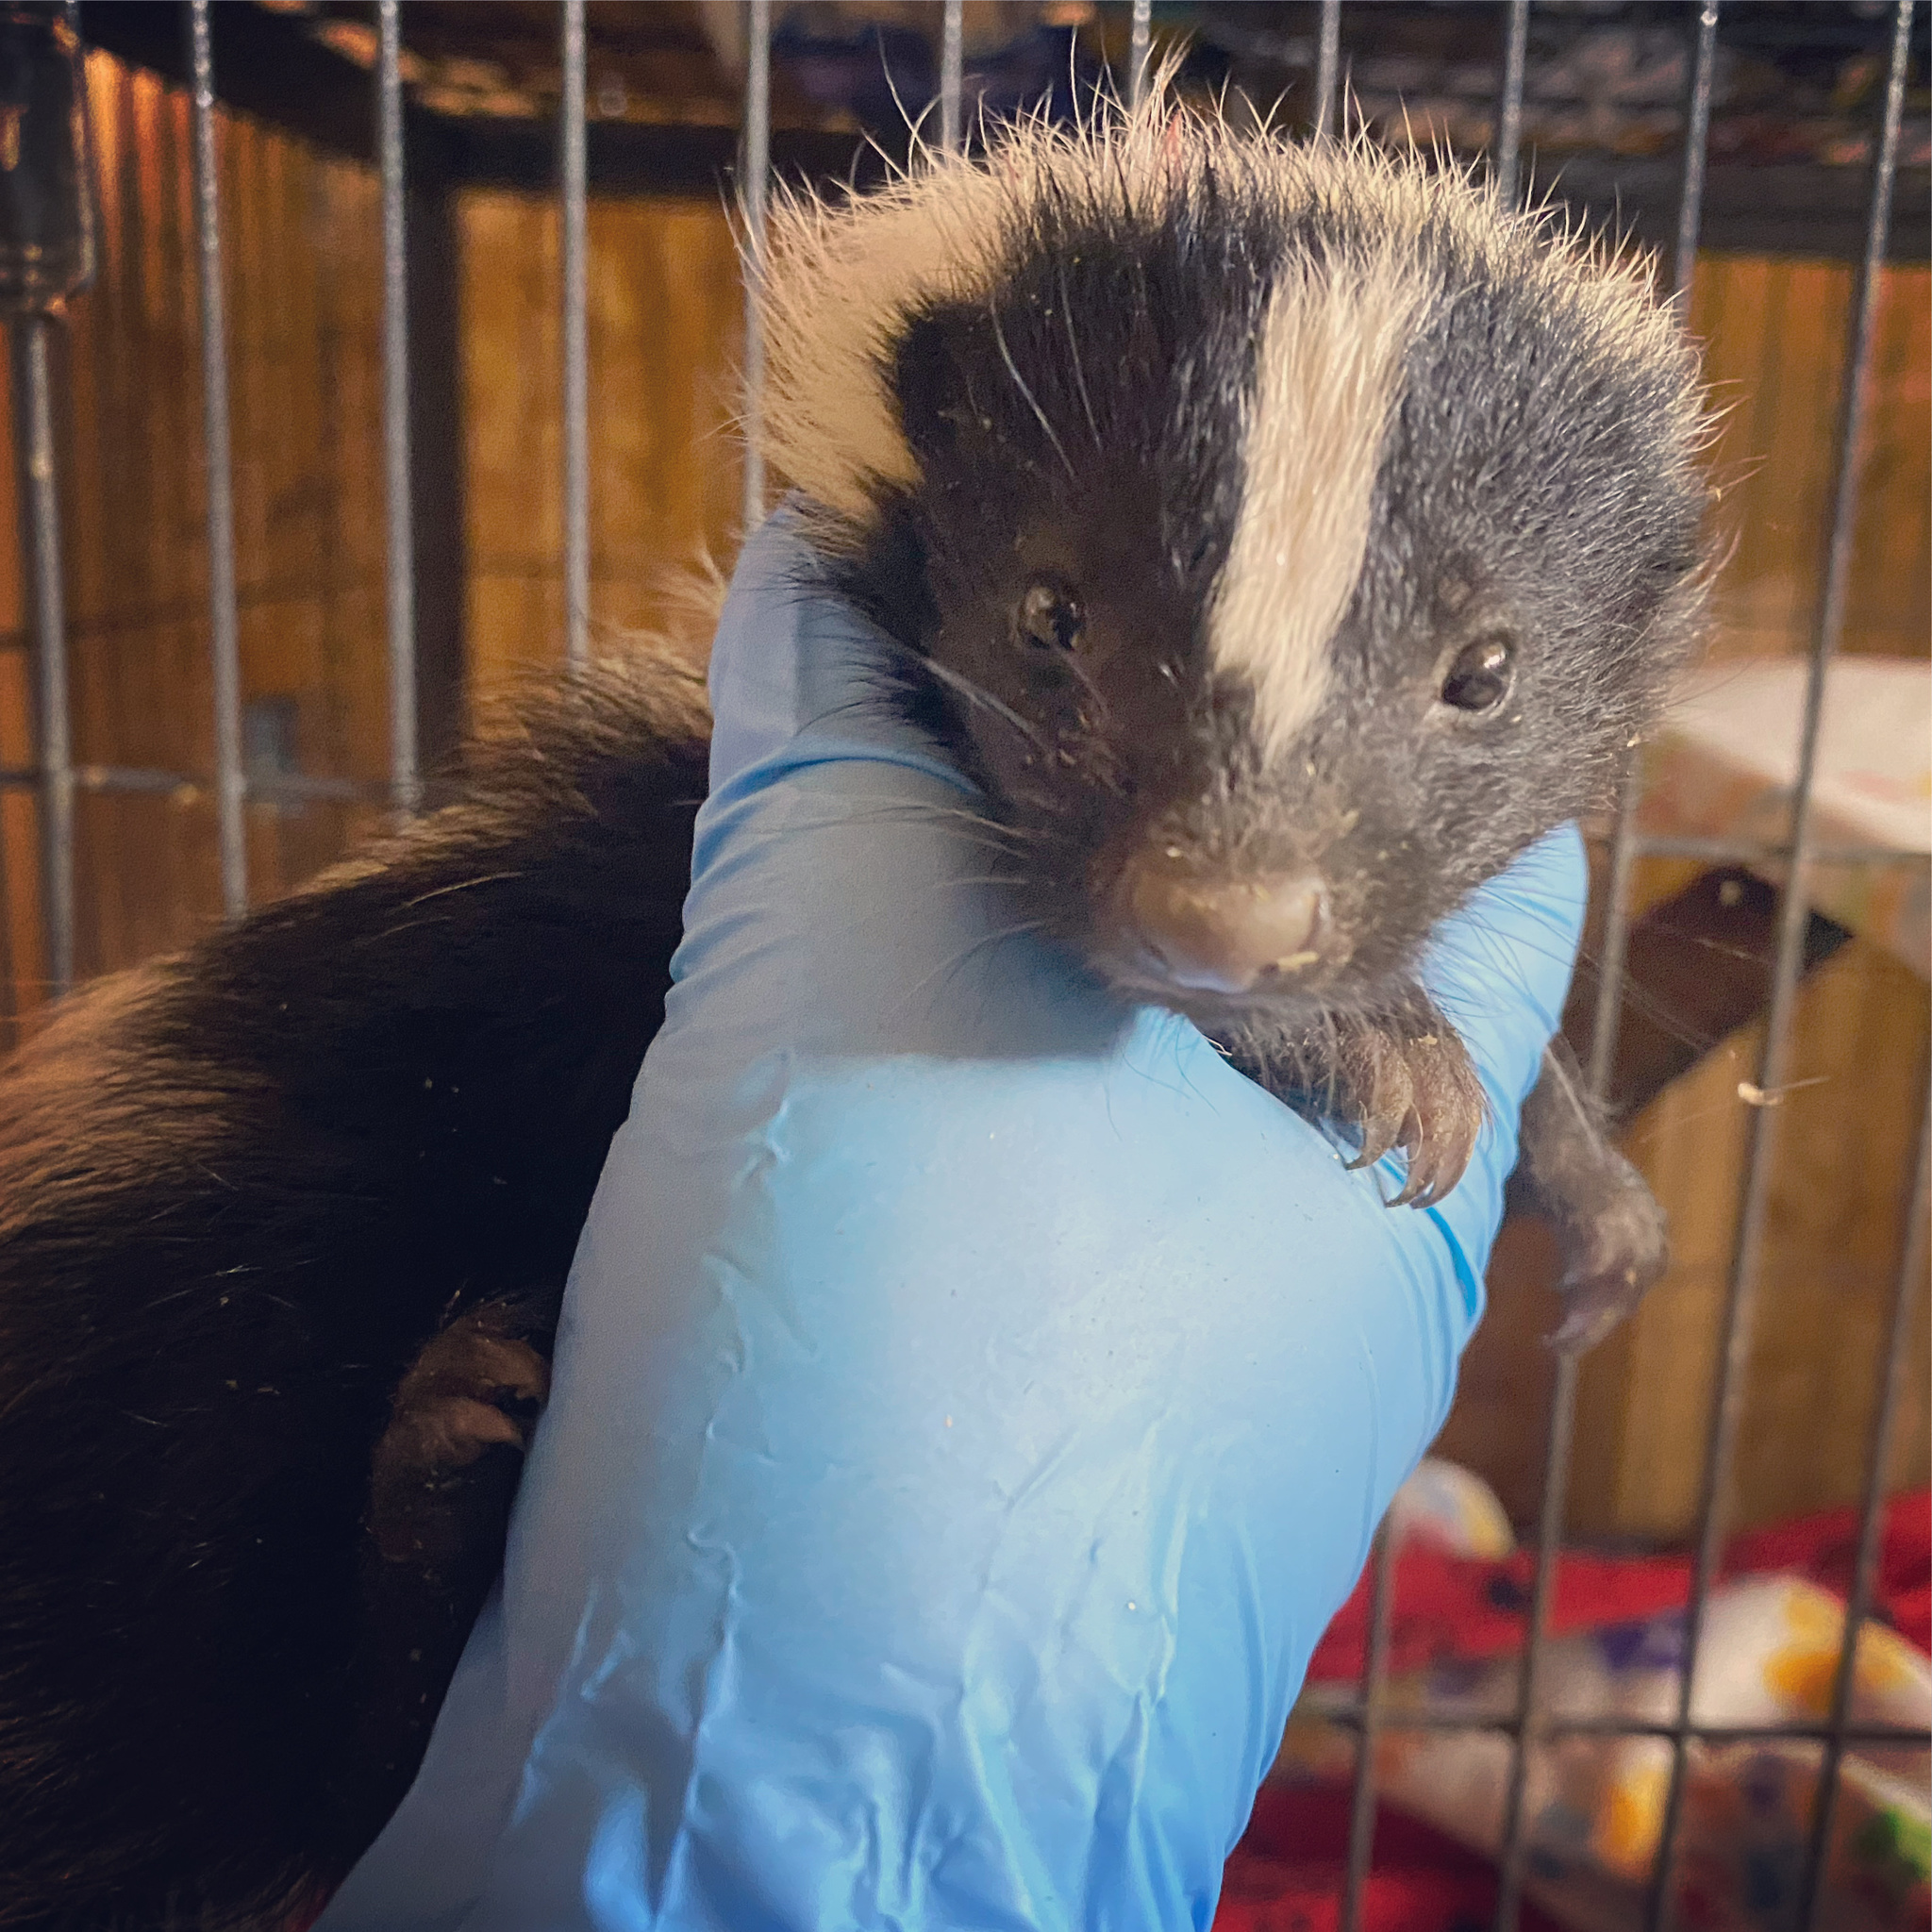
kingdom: Animalia
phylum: Chordata
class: Mammalia
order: Carnivora
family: Mephitidae
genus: Mephitis
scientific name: Mephitis mephitis
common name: Striped skunk
